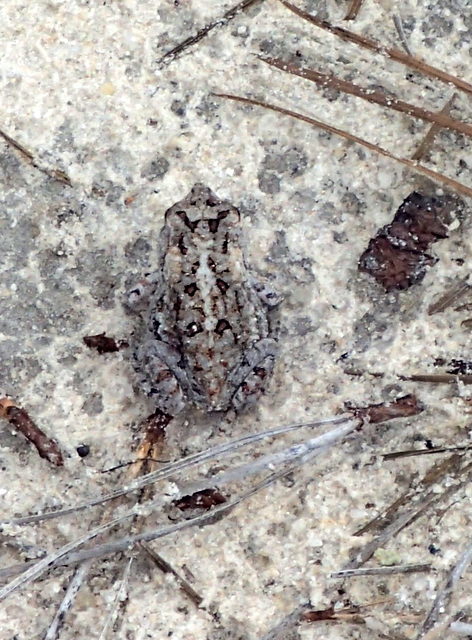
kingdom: Animalia
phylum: Chordata
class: Amphibia
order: Anura
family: Bufonidae
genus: Anaxyrus
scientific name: Anaxyrus terrestris
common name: Southern toad
